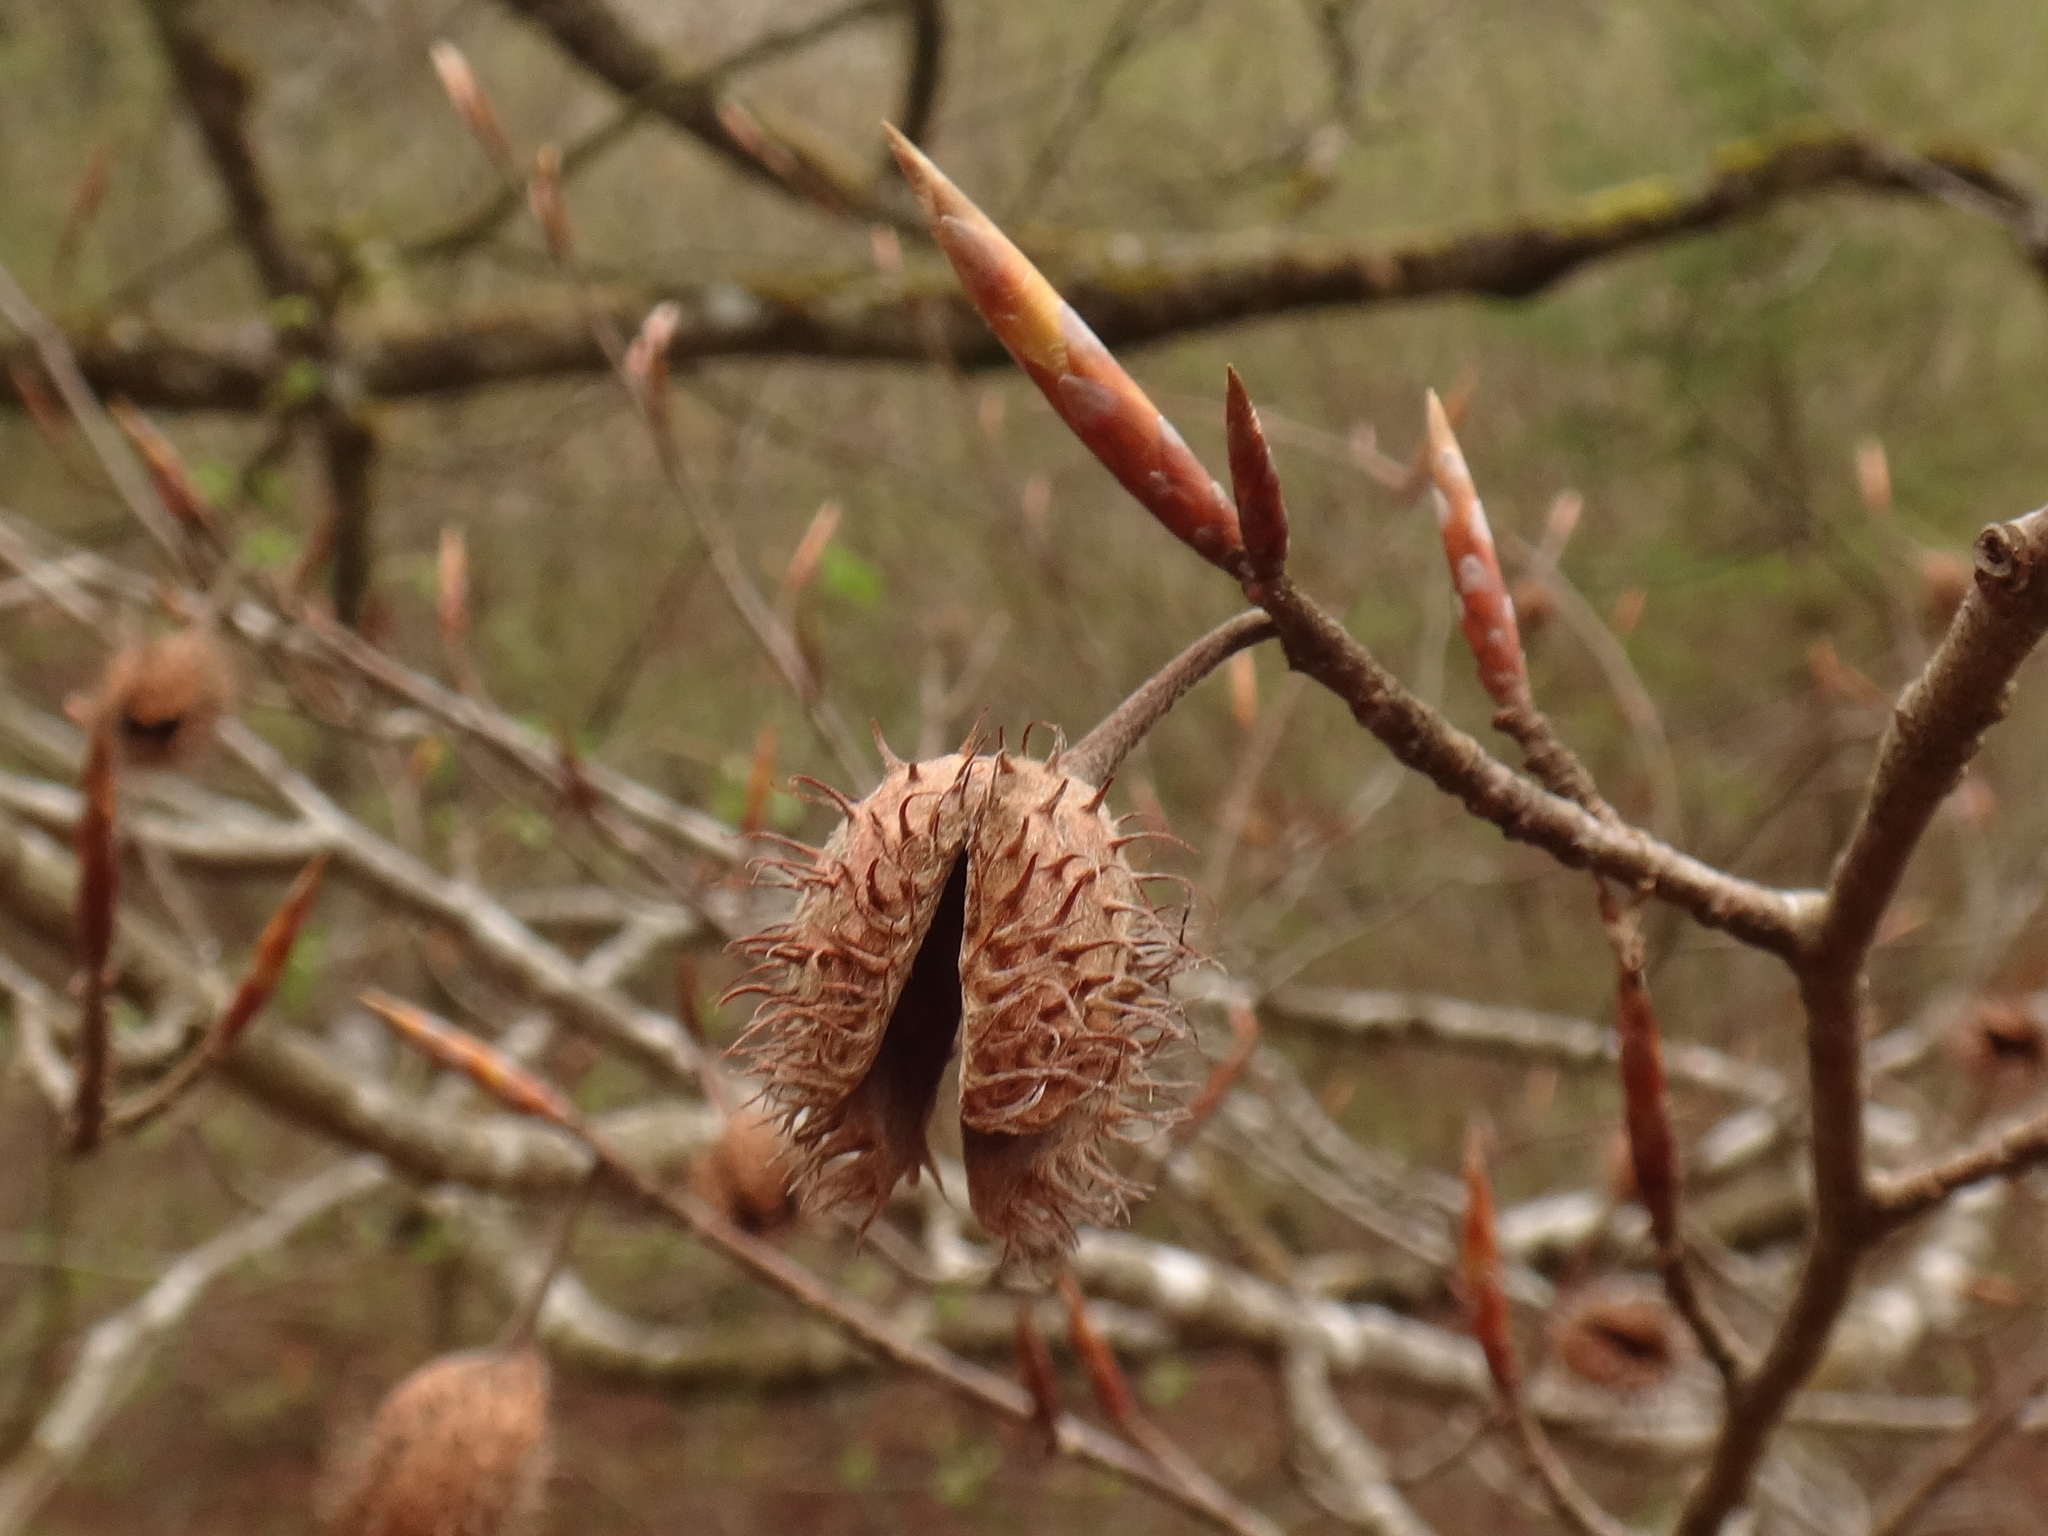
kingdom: Plantae
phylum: Tracheophyta
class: Magnoliopsida
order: Fagales
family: Fagaceae
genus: Fagus
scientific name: Fagus sylvatica
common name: Beech
